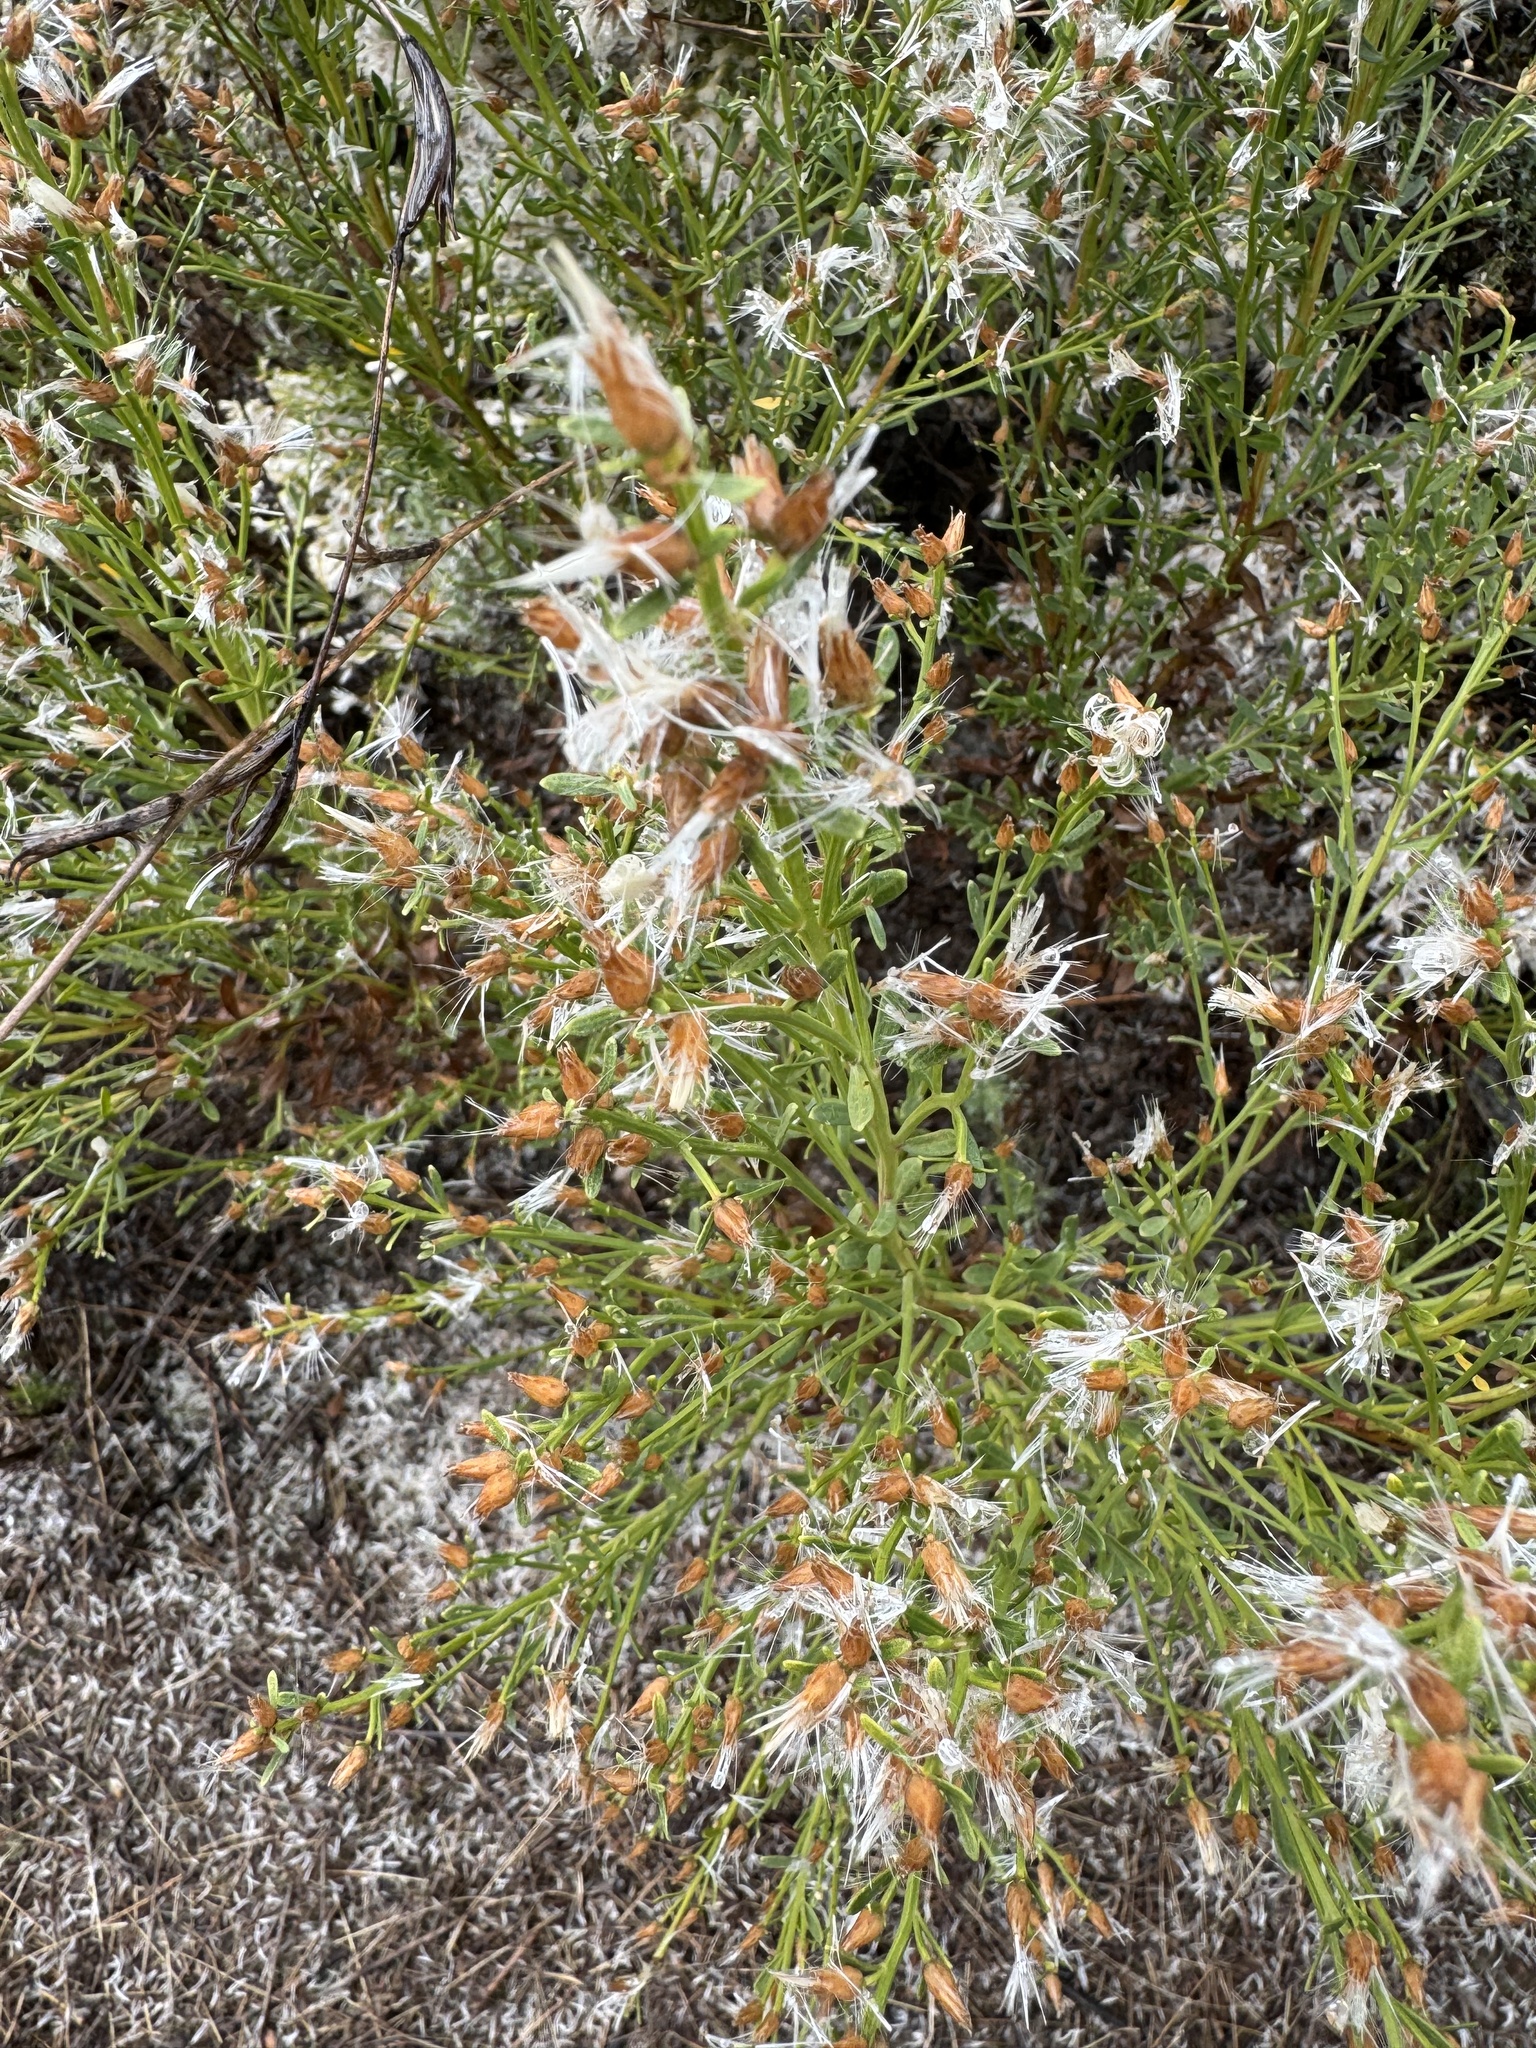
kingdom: Plantae
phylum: Tracheophyta
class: Magnoliopsida
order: Asterales
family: Asteraceae
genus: Baccharis
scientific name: Baccharis sarothroides
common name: Desert-broom
